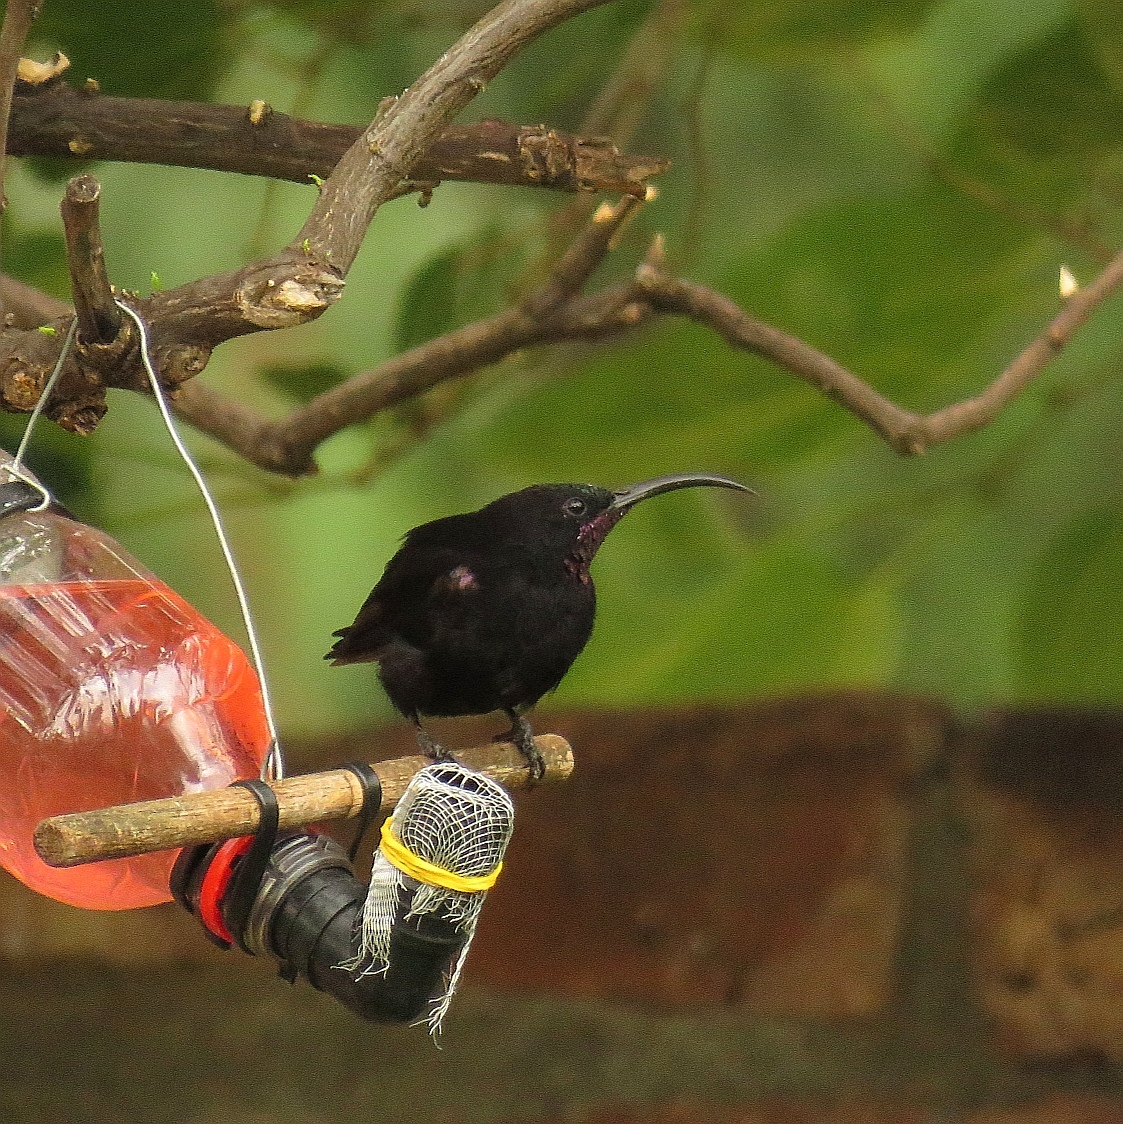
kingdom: Animalia
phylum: Chordata
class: Aves
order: Passeriformes
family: Nectariniidae
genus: Chalcomitra
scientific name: Chalcomitra amethystina
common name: Amethyst sunbird
